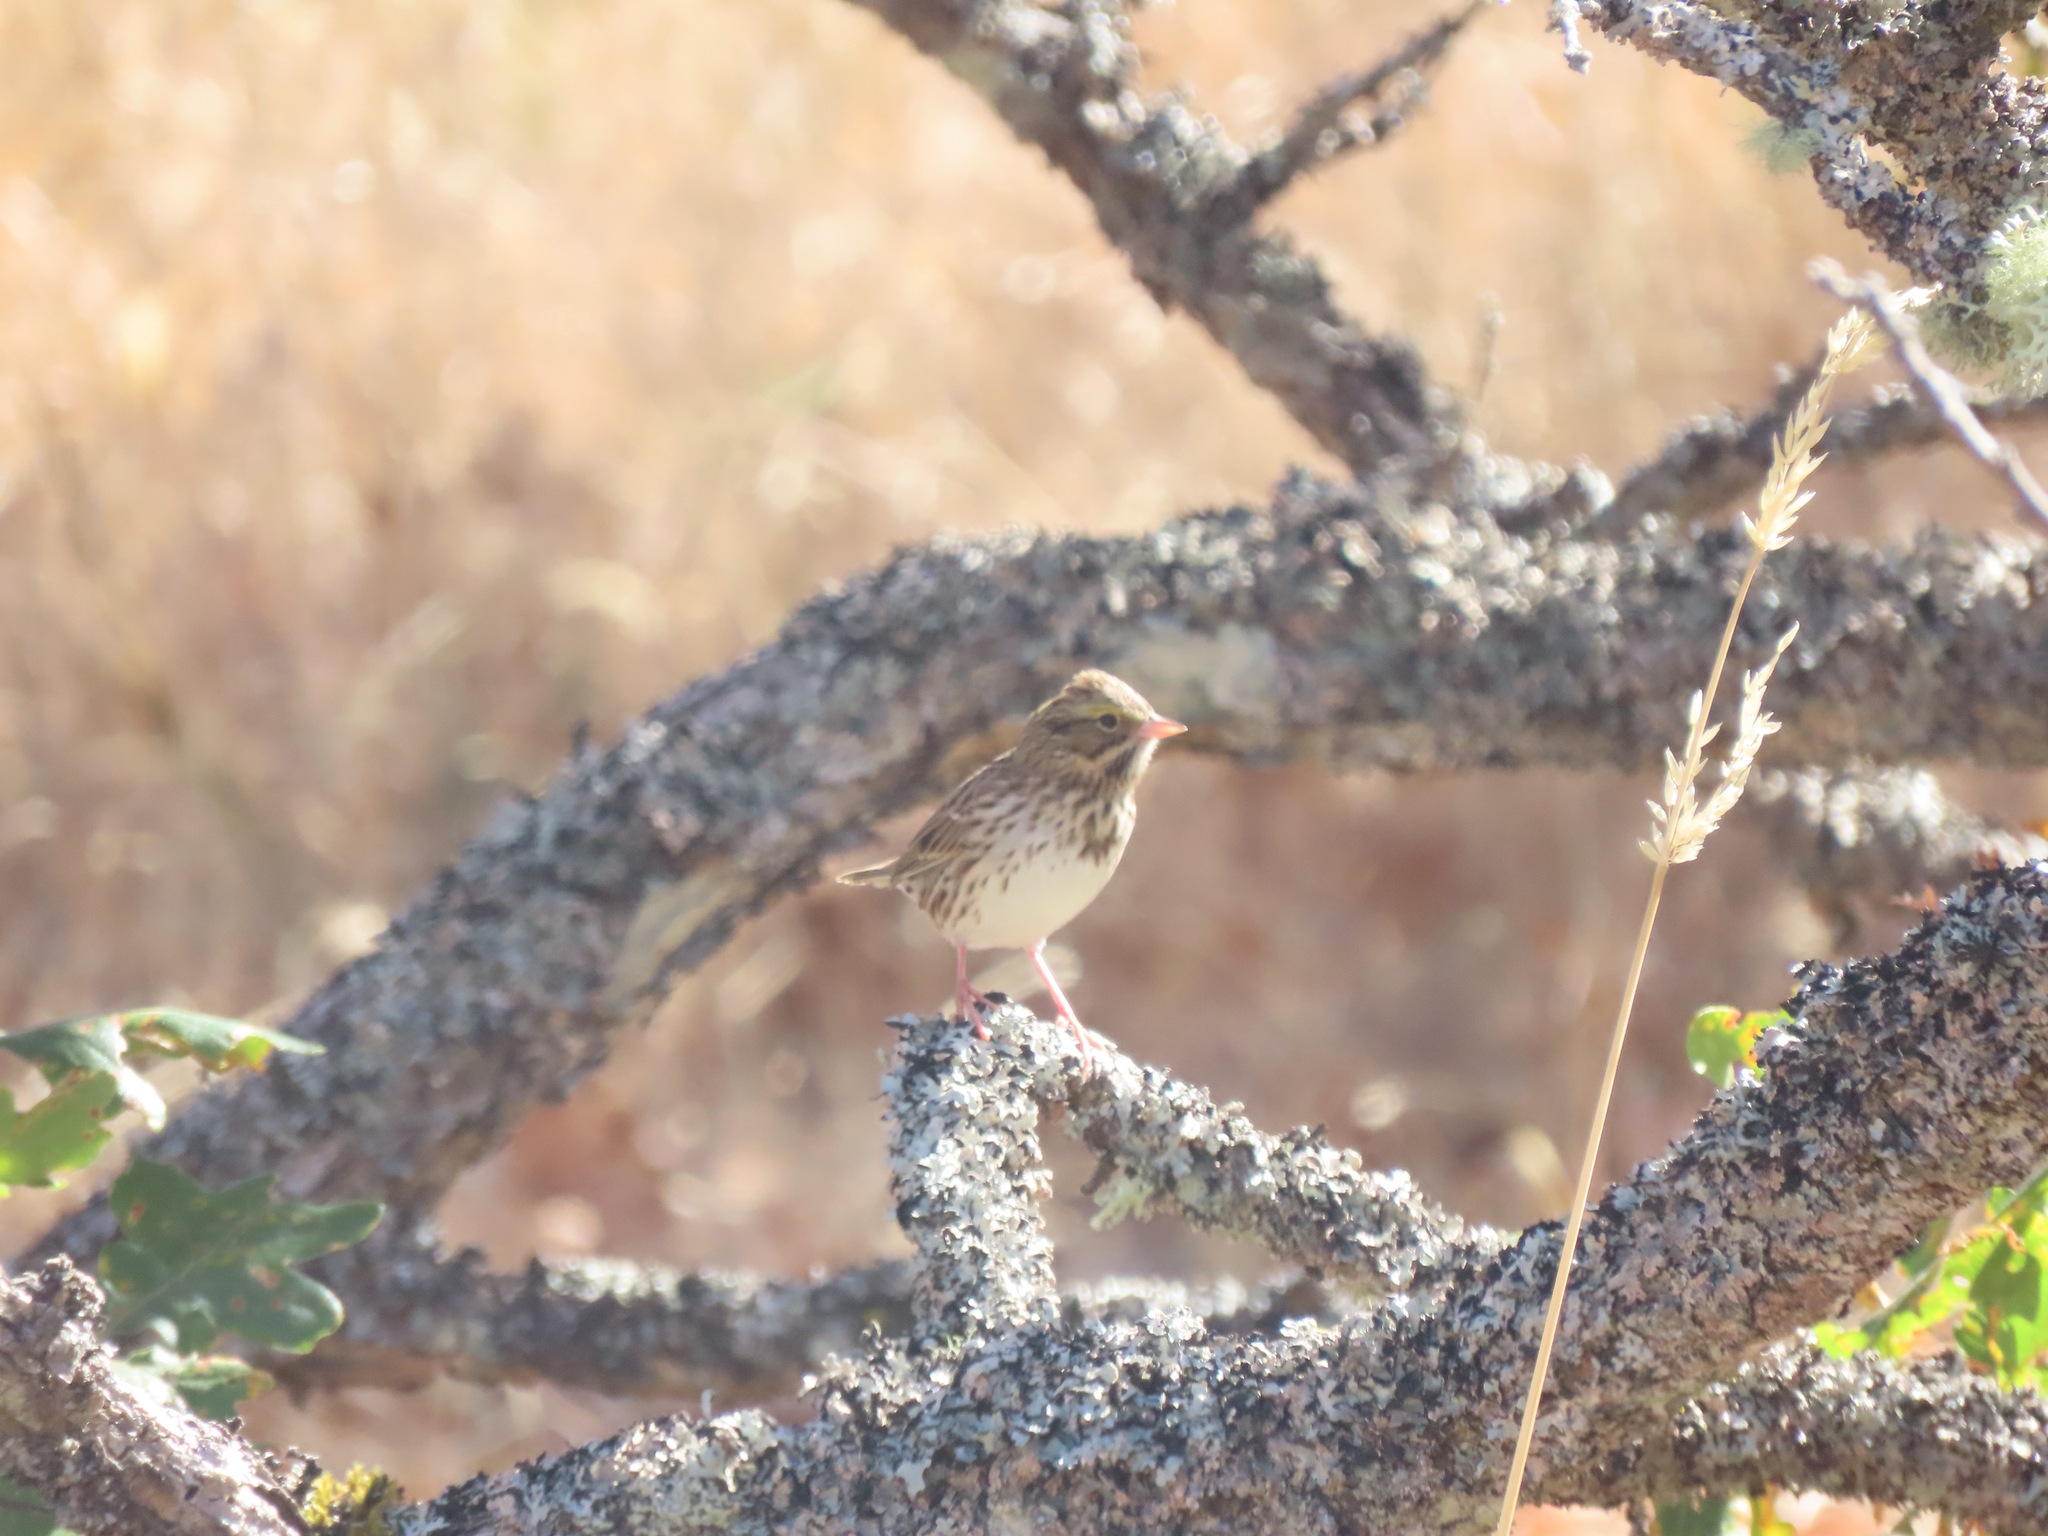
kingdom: Animalia
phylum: Chordata
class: Aves
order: Passeriformes
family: Passerellidae
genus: Passerculus
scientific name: Passerculus sandwichensis
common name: Savannah sparrow
